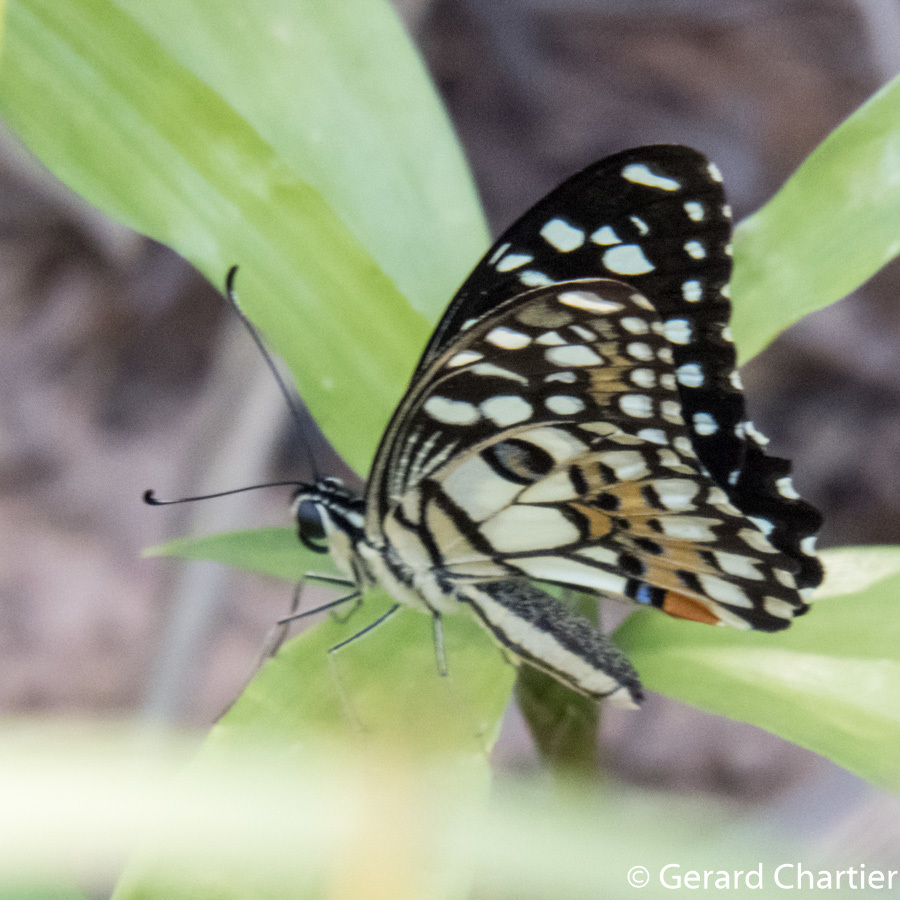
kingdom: Animalia
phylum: Arthropoda
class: Insecta
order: Lepidoptera
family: Papilionidae
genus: Papilio
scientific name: Papilio demoleus
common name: Lime butterfly
